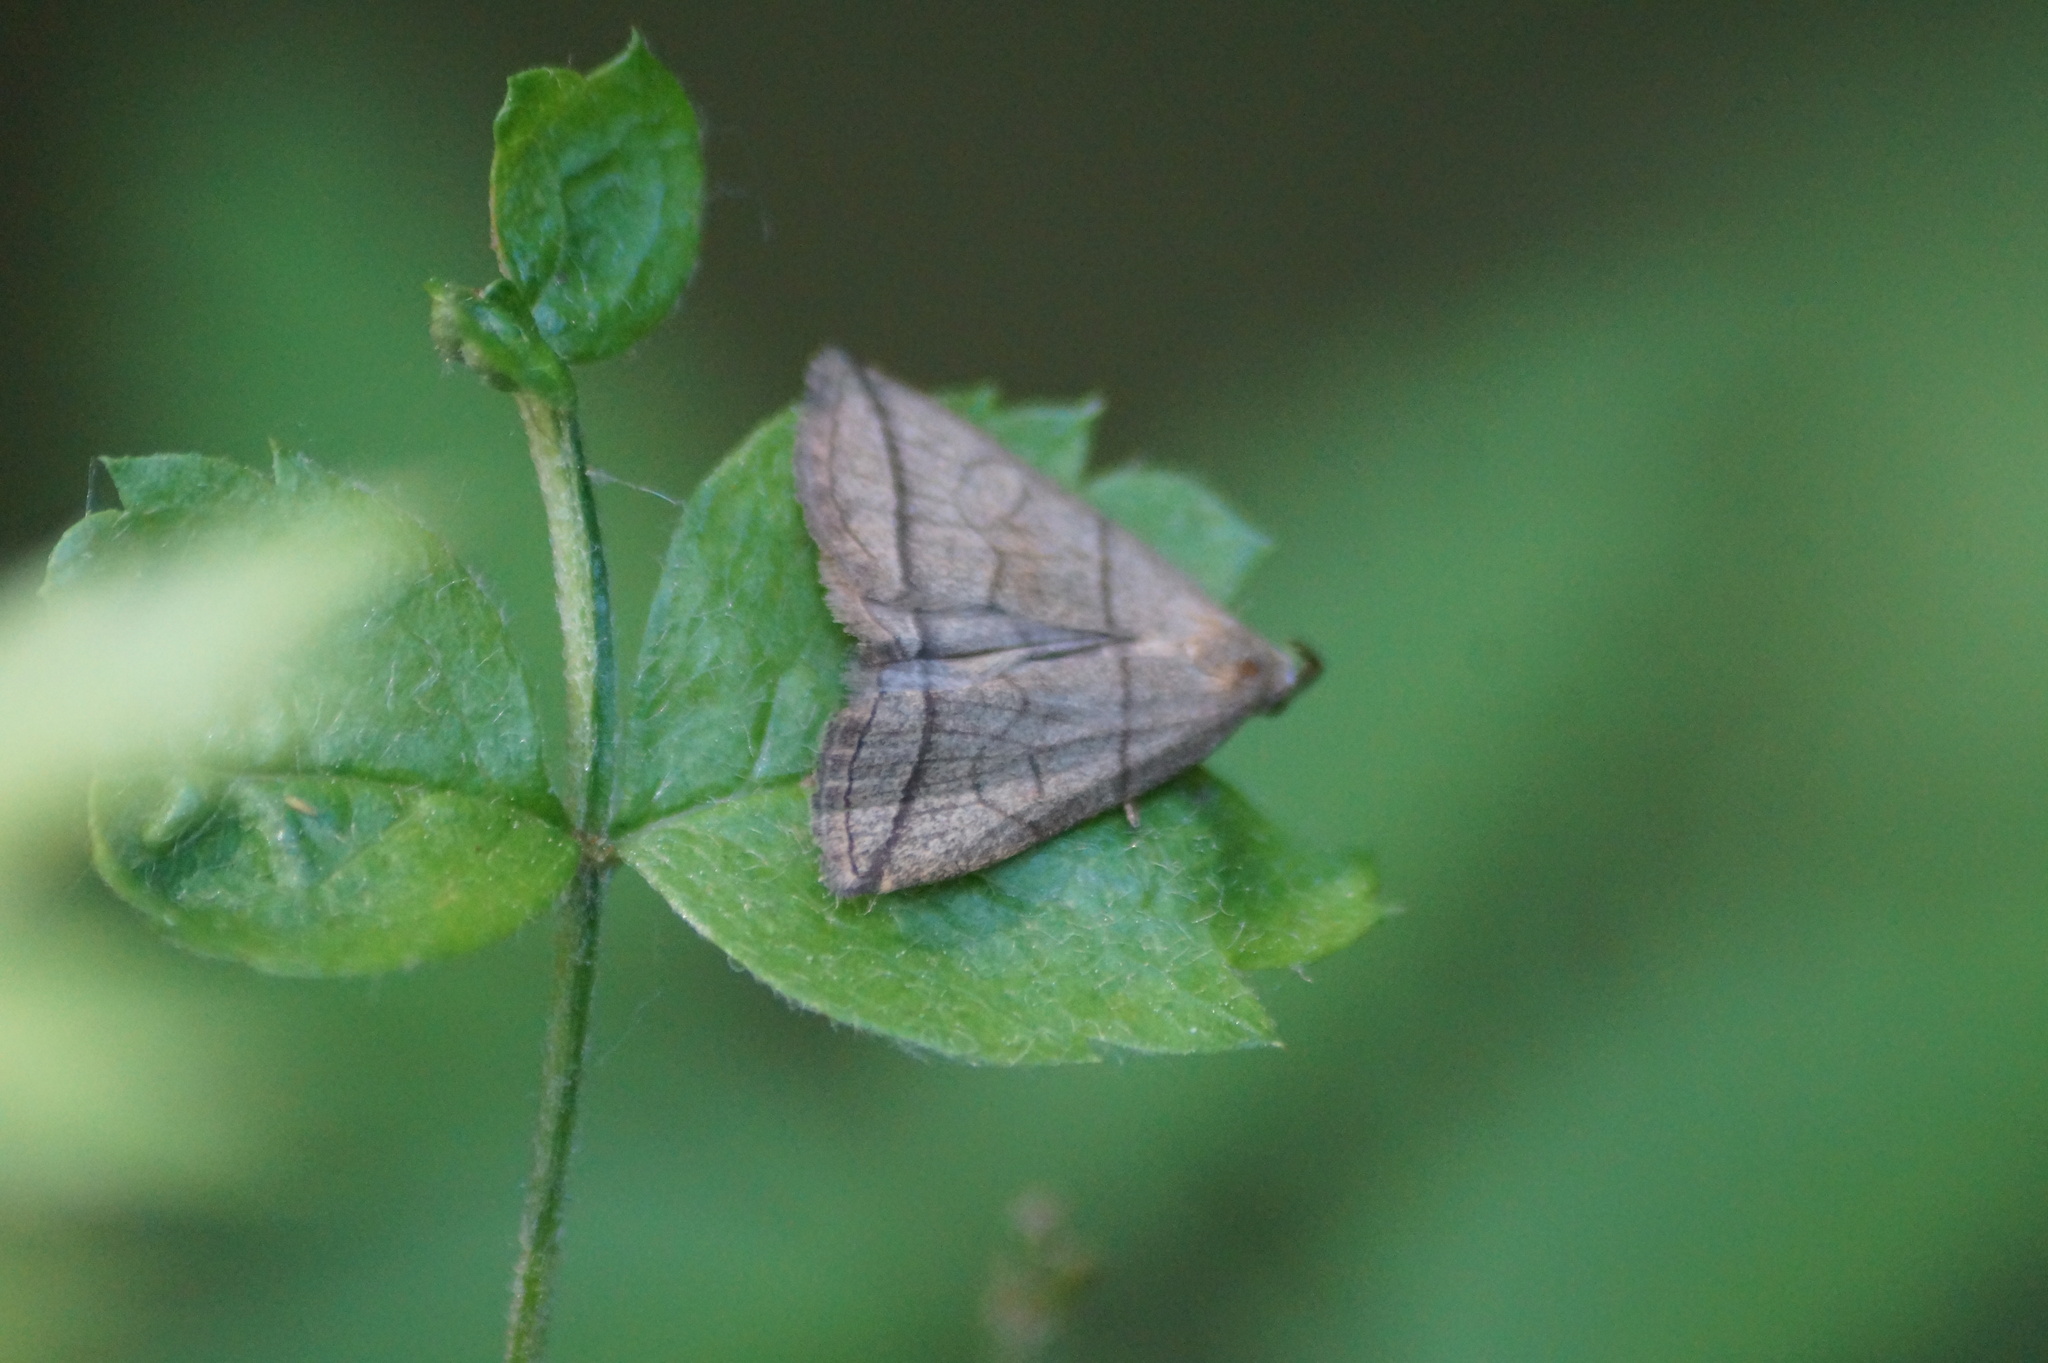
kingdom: Animalia
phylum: Arthropoda
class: Insecta
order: Lepidoptera
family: Erebidae
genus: Herminia
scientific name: Herminia grisealis
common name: Small fan-foot
